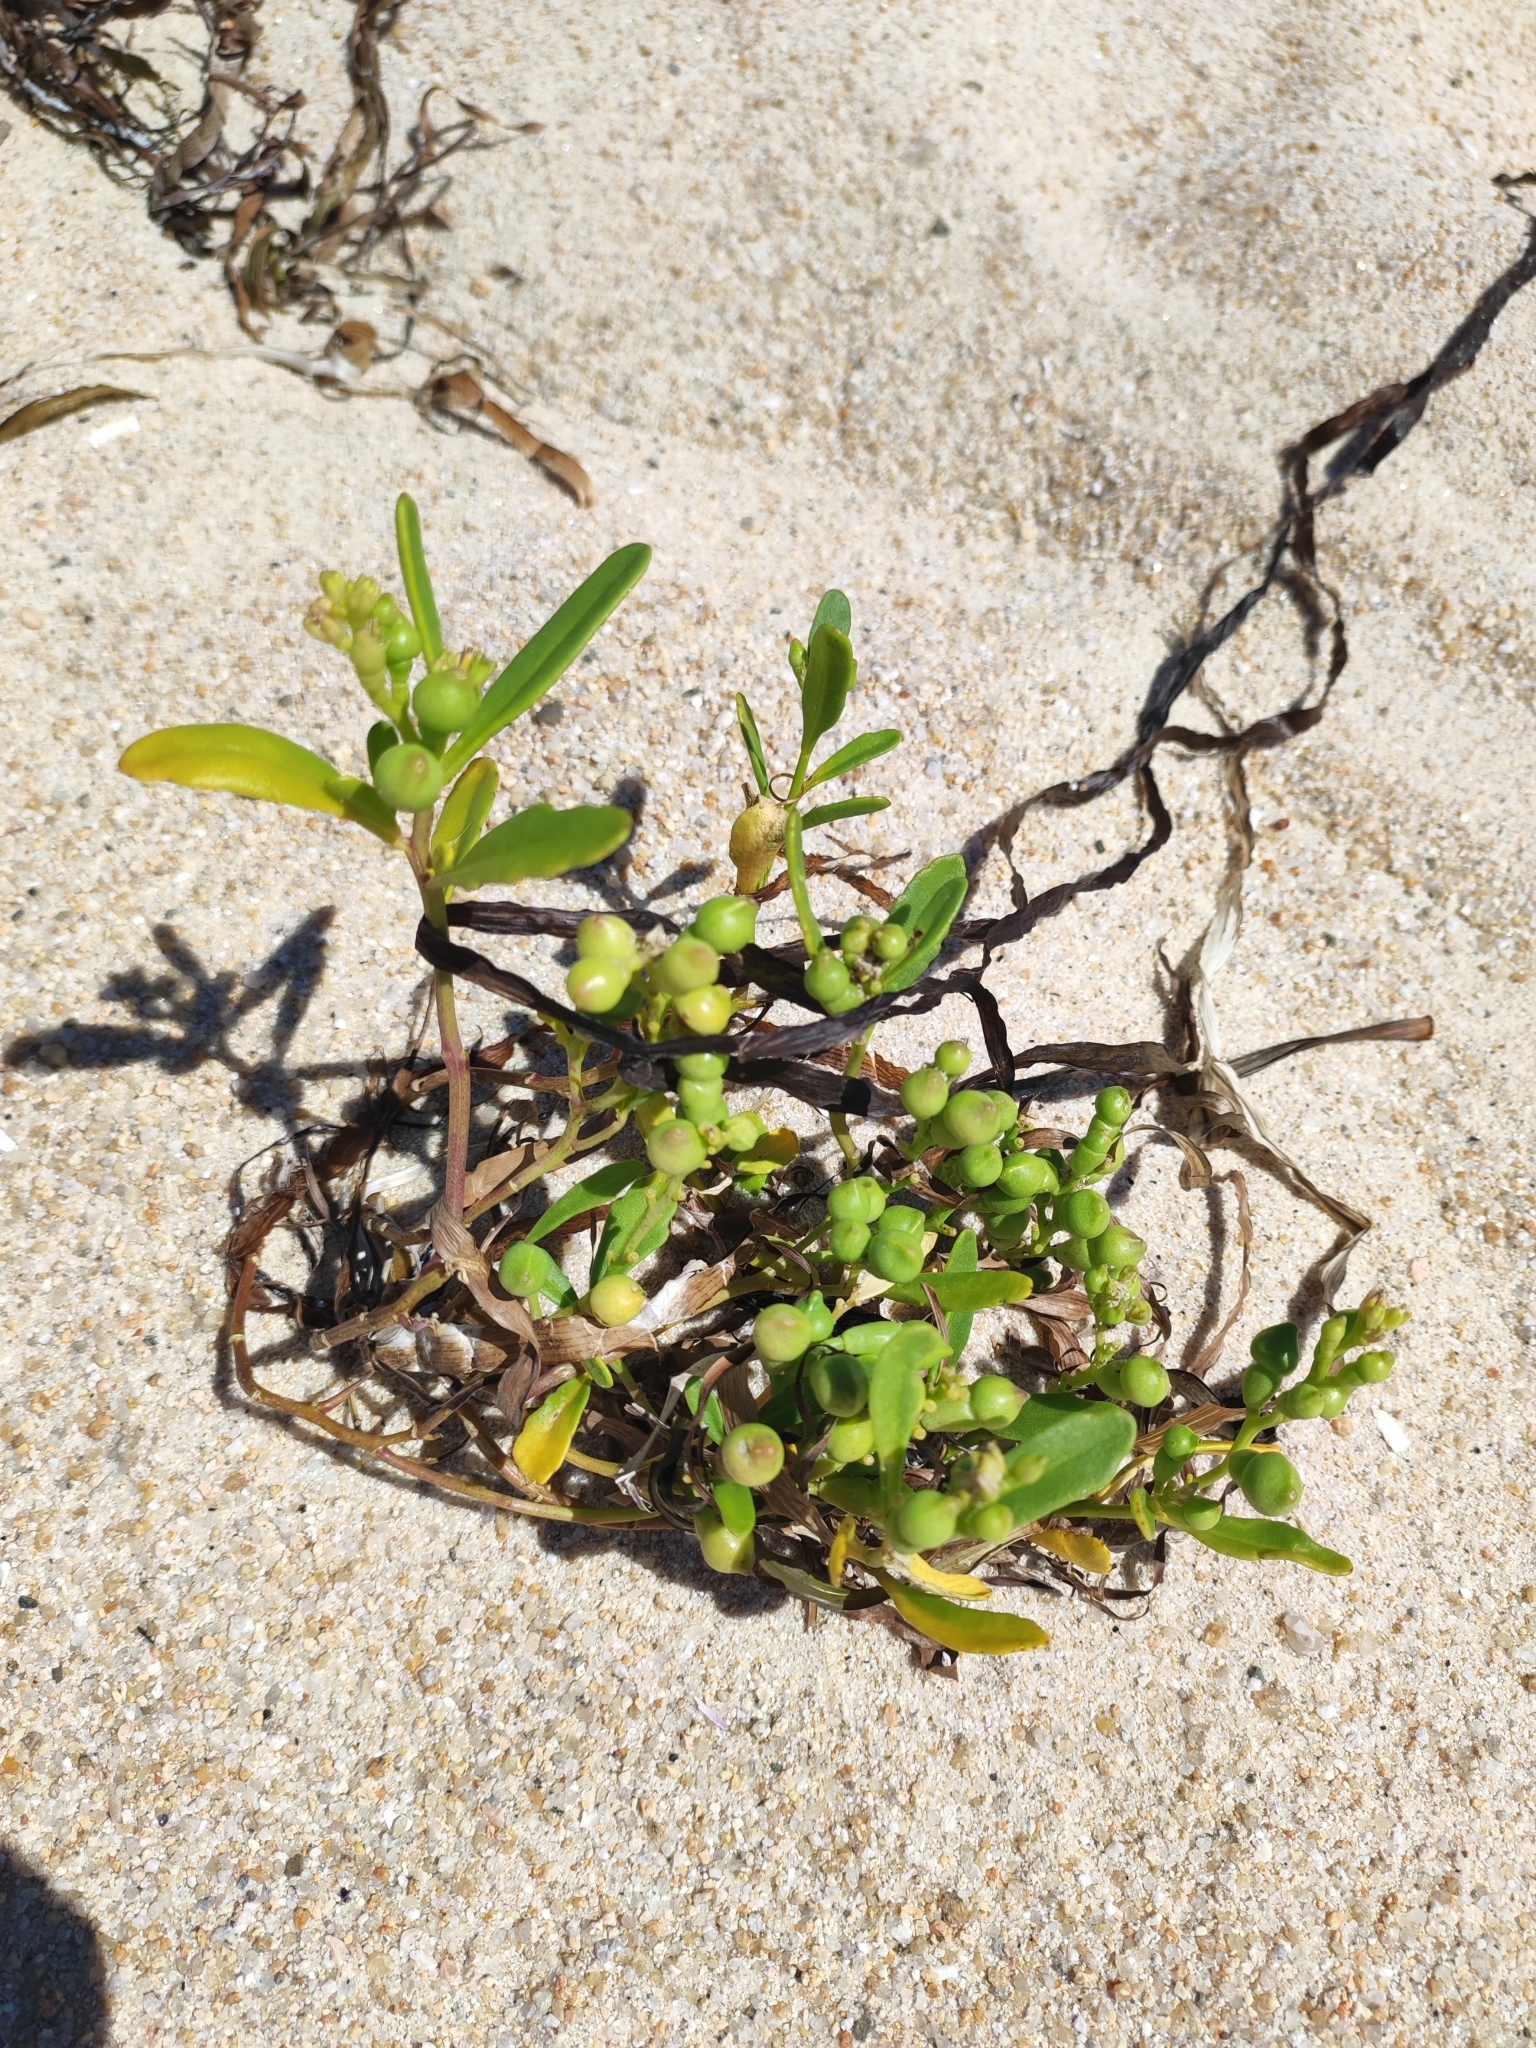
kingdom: Plantae
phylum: Tracheophyta
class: Magnoliopsida
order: Brassicales
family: Brassicaceae
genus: Cakile
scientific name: Cakile edentula
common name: American sea rocket
